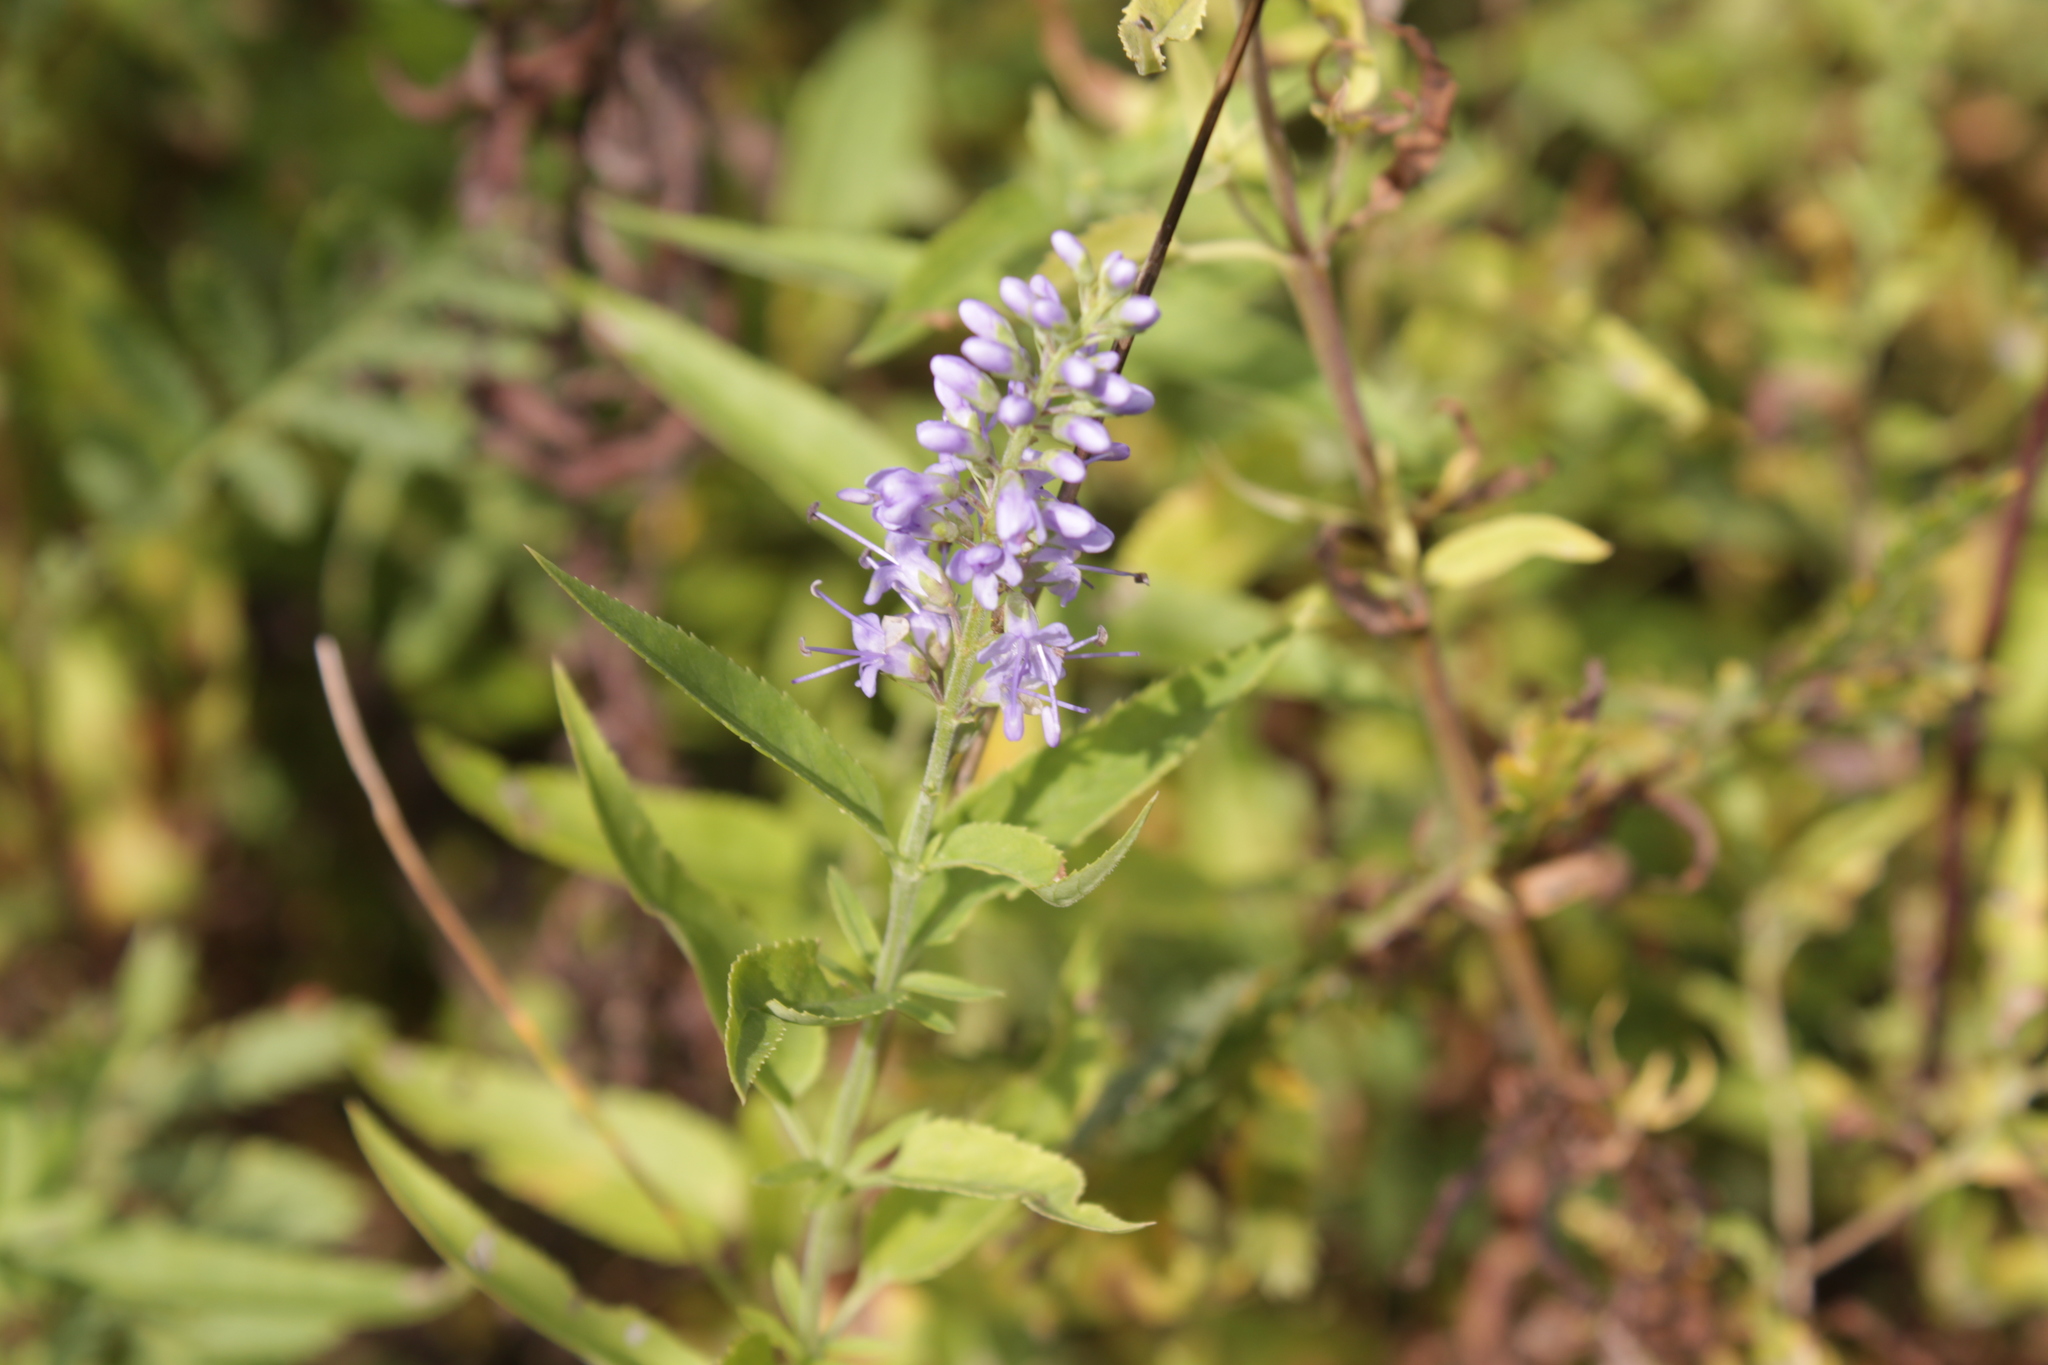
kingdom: Plantae
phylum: Tracheophyta
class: Magnoliopsida
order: Lamiales
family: Plantaginaceae
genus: Veronica
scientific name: Veronica longifolia
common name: Garden speedwell
